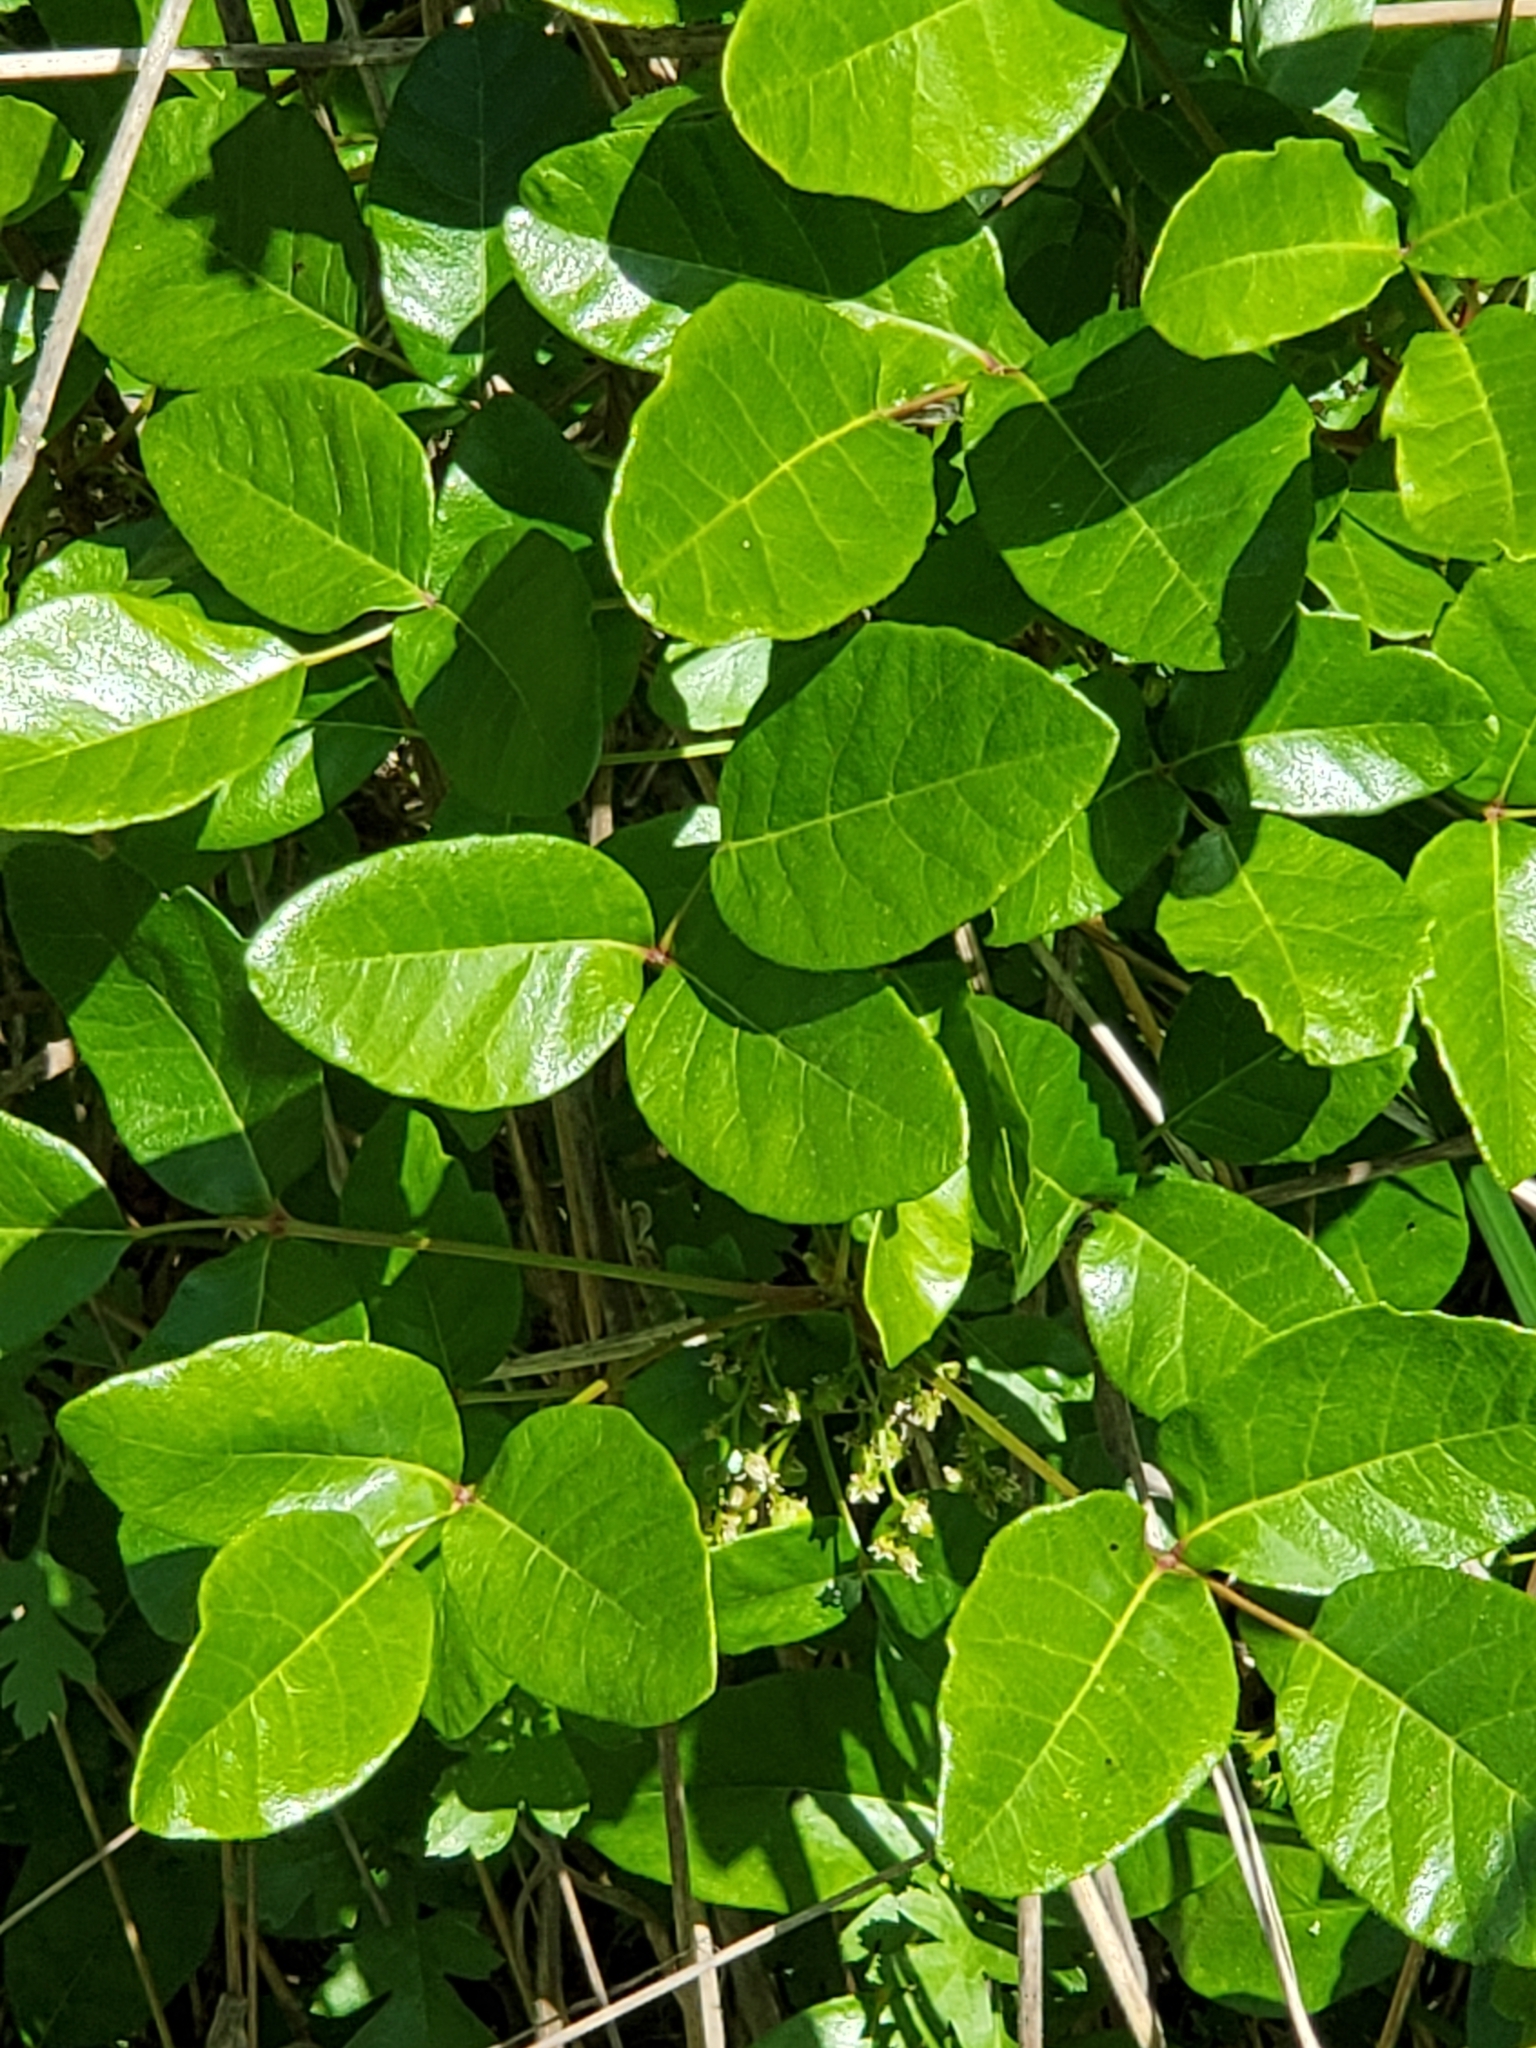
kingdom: Plantae
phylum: Tracheophyta
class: Magnoliopsida
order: Sapindales
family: Anacardiaceae
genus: Toxicodendron
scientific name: Toxicodendron diversilobum
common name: Pacific poison-oak
